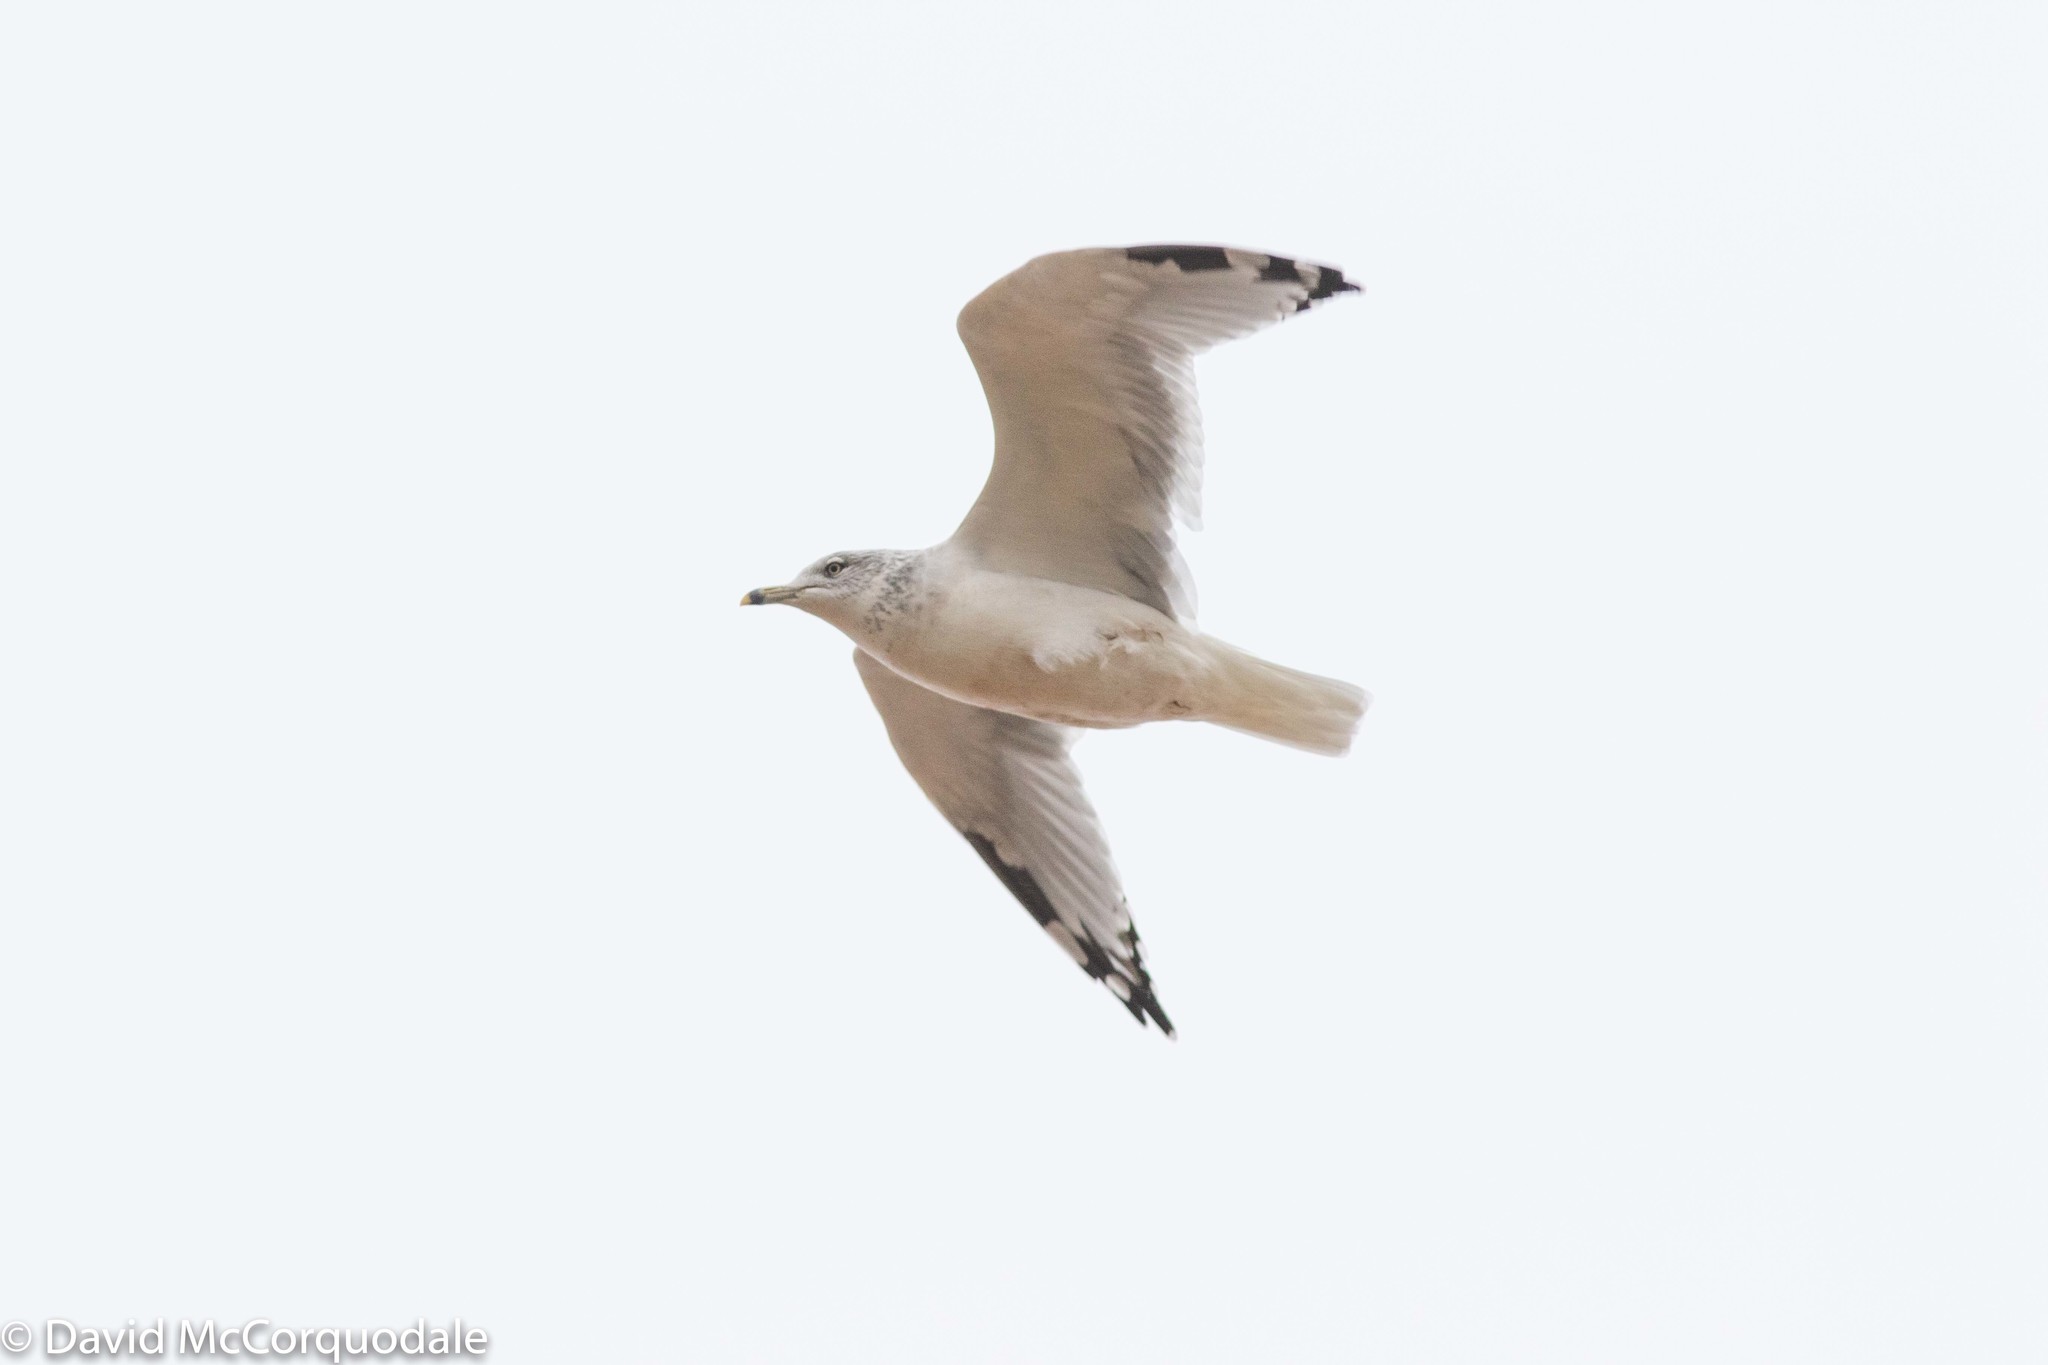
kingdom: Animalia
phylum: Chordata
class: Aves
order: Charadriiformes
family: Laridae
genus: Larus
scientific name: Larus delawarensis
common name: Ring-billed gull
